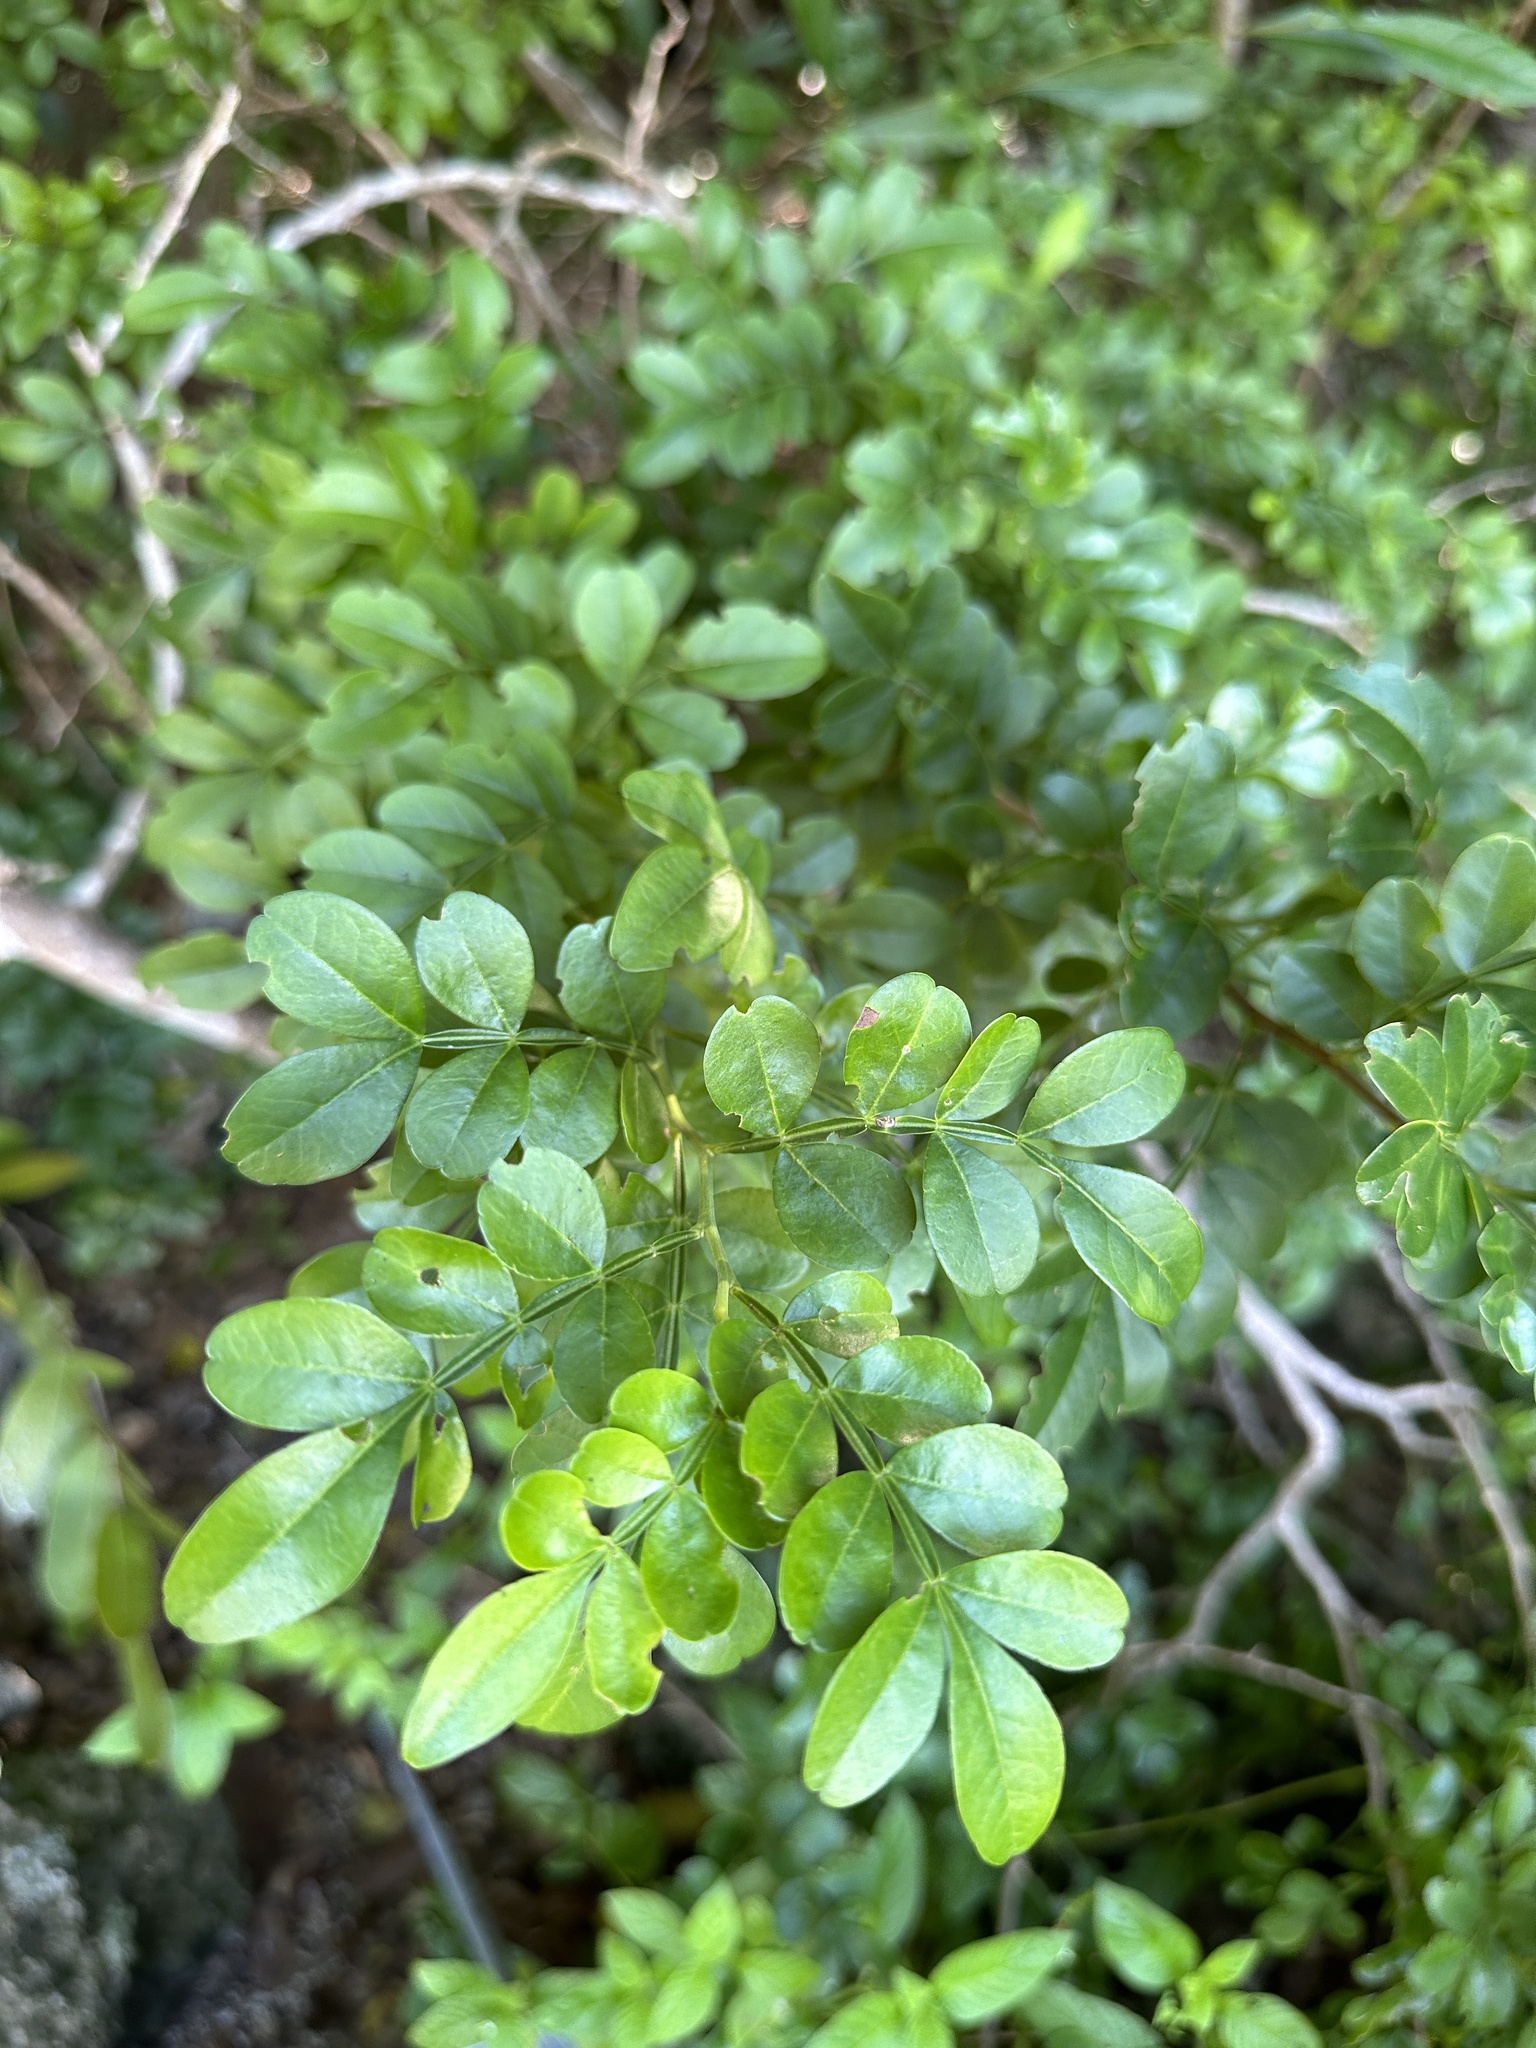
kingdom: Plantae
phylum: Tracheophyta
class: Magnoliopsida
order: Sapindales
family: Rutaceae
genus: Zanthoxylum
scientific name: Zanthoxylum fagara
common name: Lime prickly-ash
